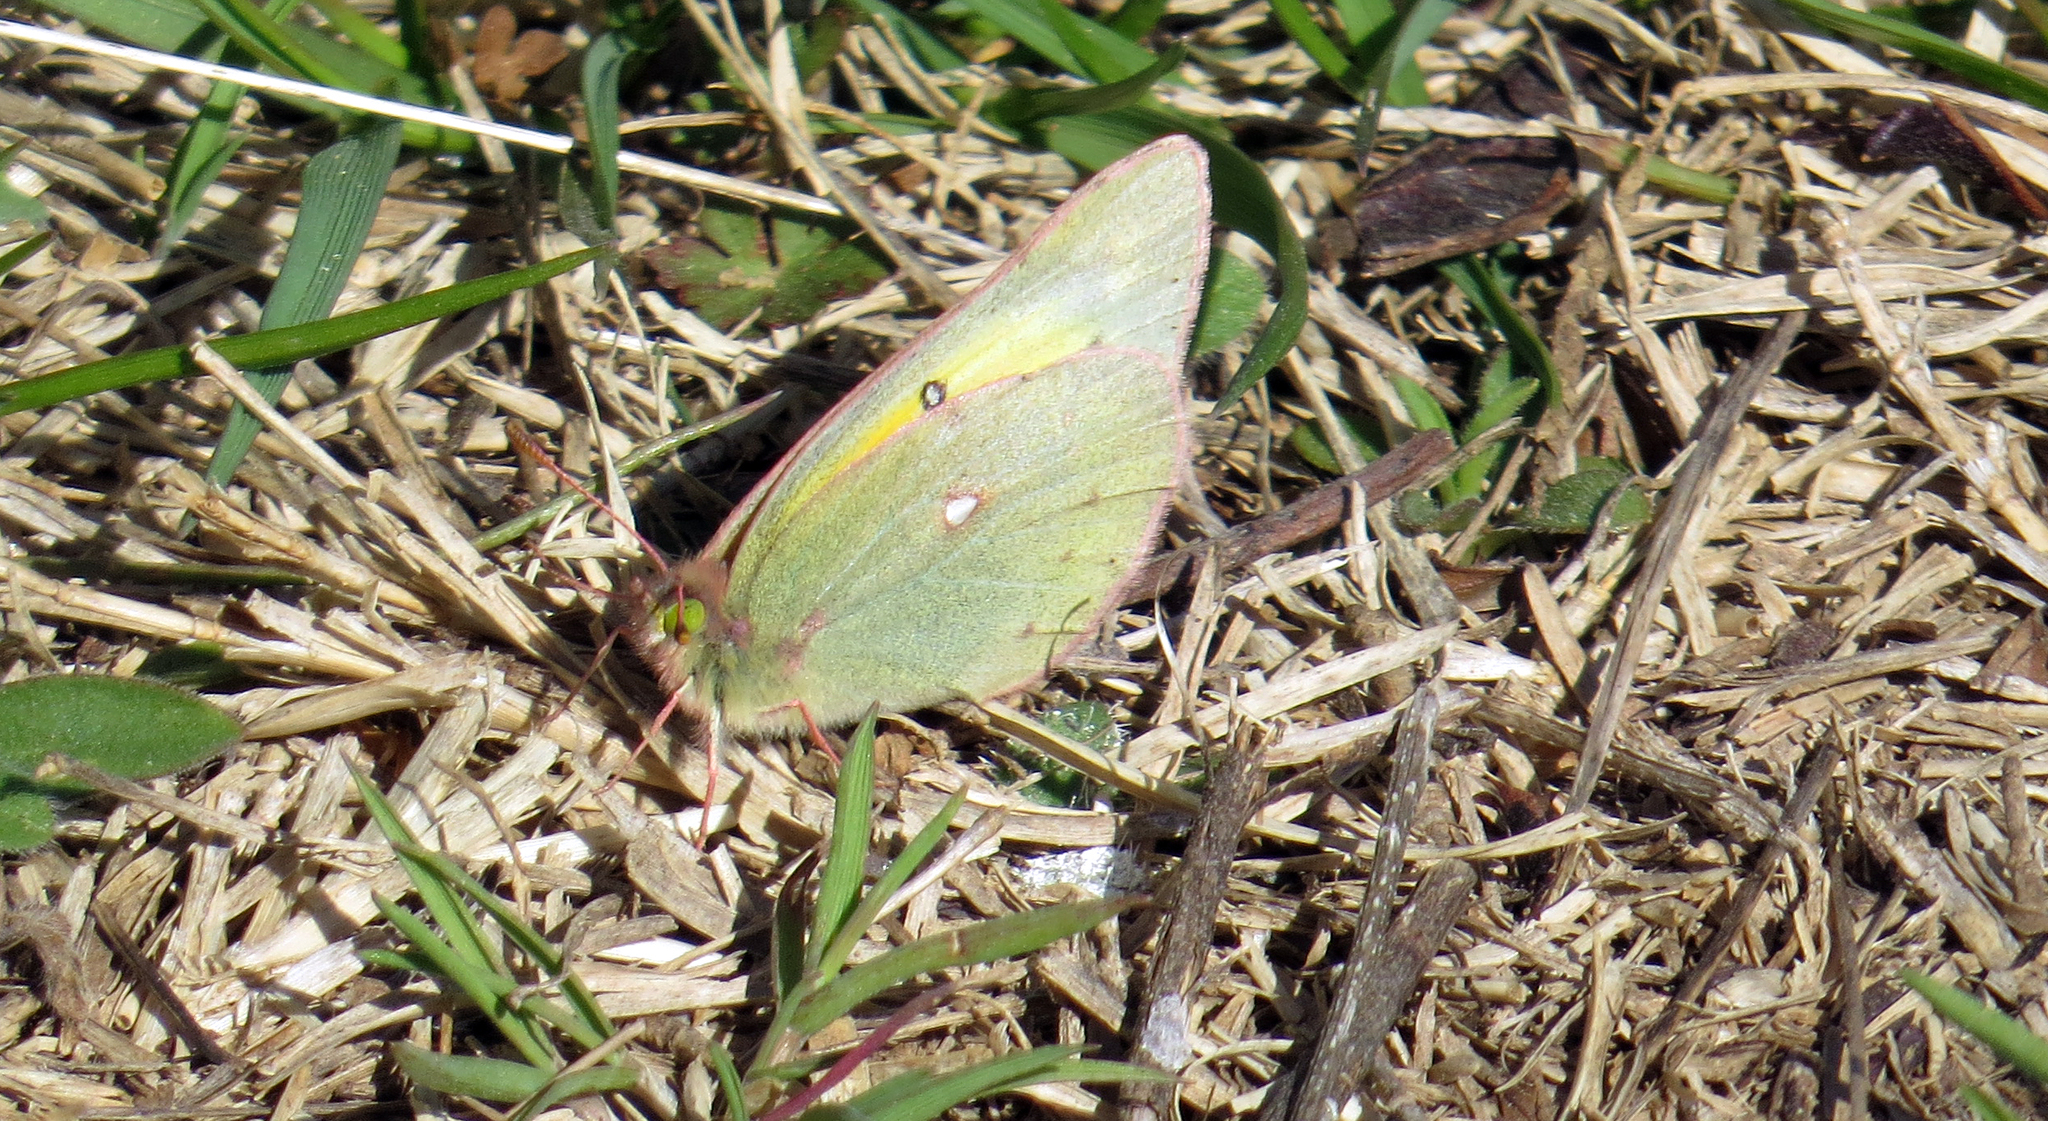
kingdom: Animalia
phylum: Arthropoda
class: Insecta
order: Lepidoptera
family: Pieridae
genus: Colias
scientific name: Colias eurytheme
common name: Alfalfa butterfly
